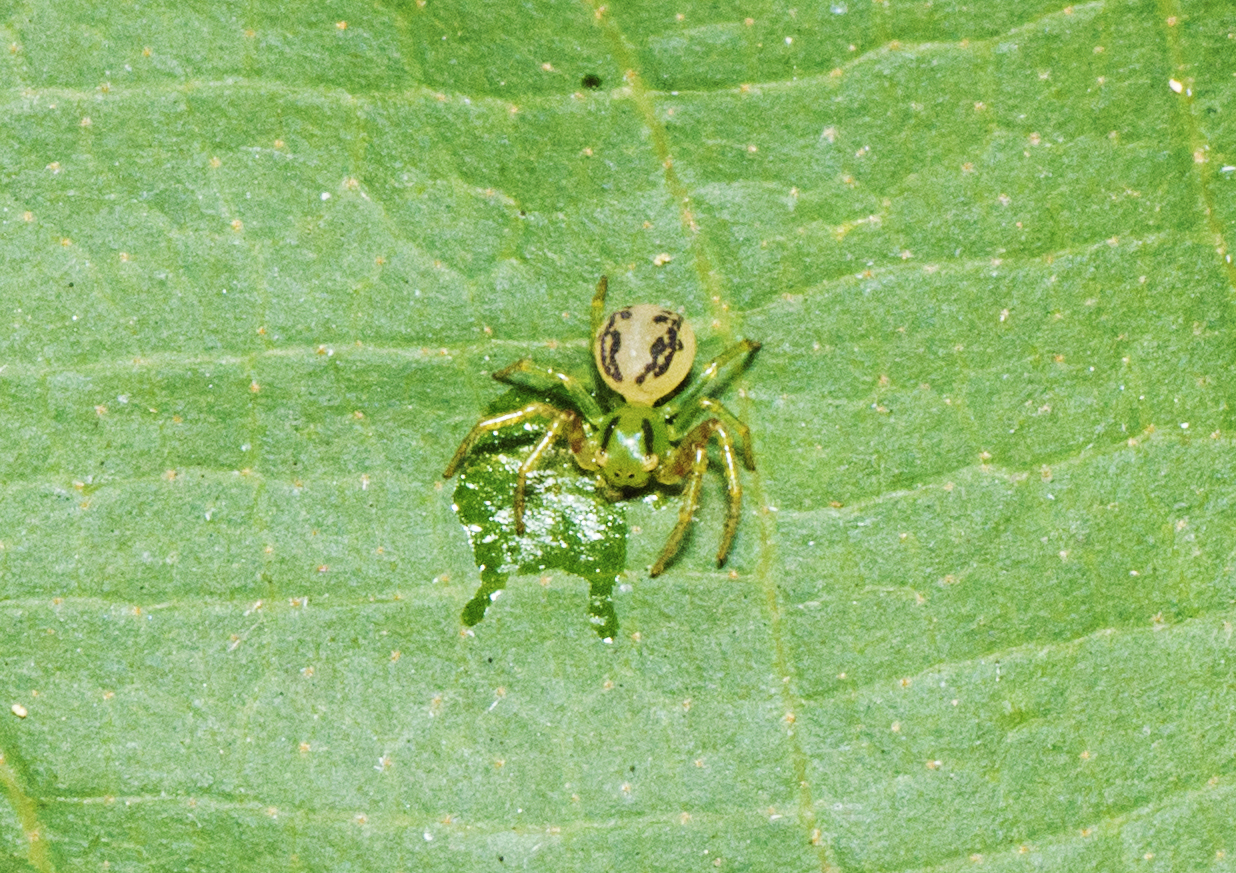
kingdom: Animalia
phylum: Arthropoda
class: Arachnida
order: Araneae
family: Thomisidae
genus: Australomisidia
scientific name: Australomisidia cruentata
